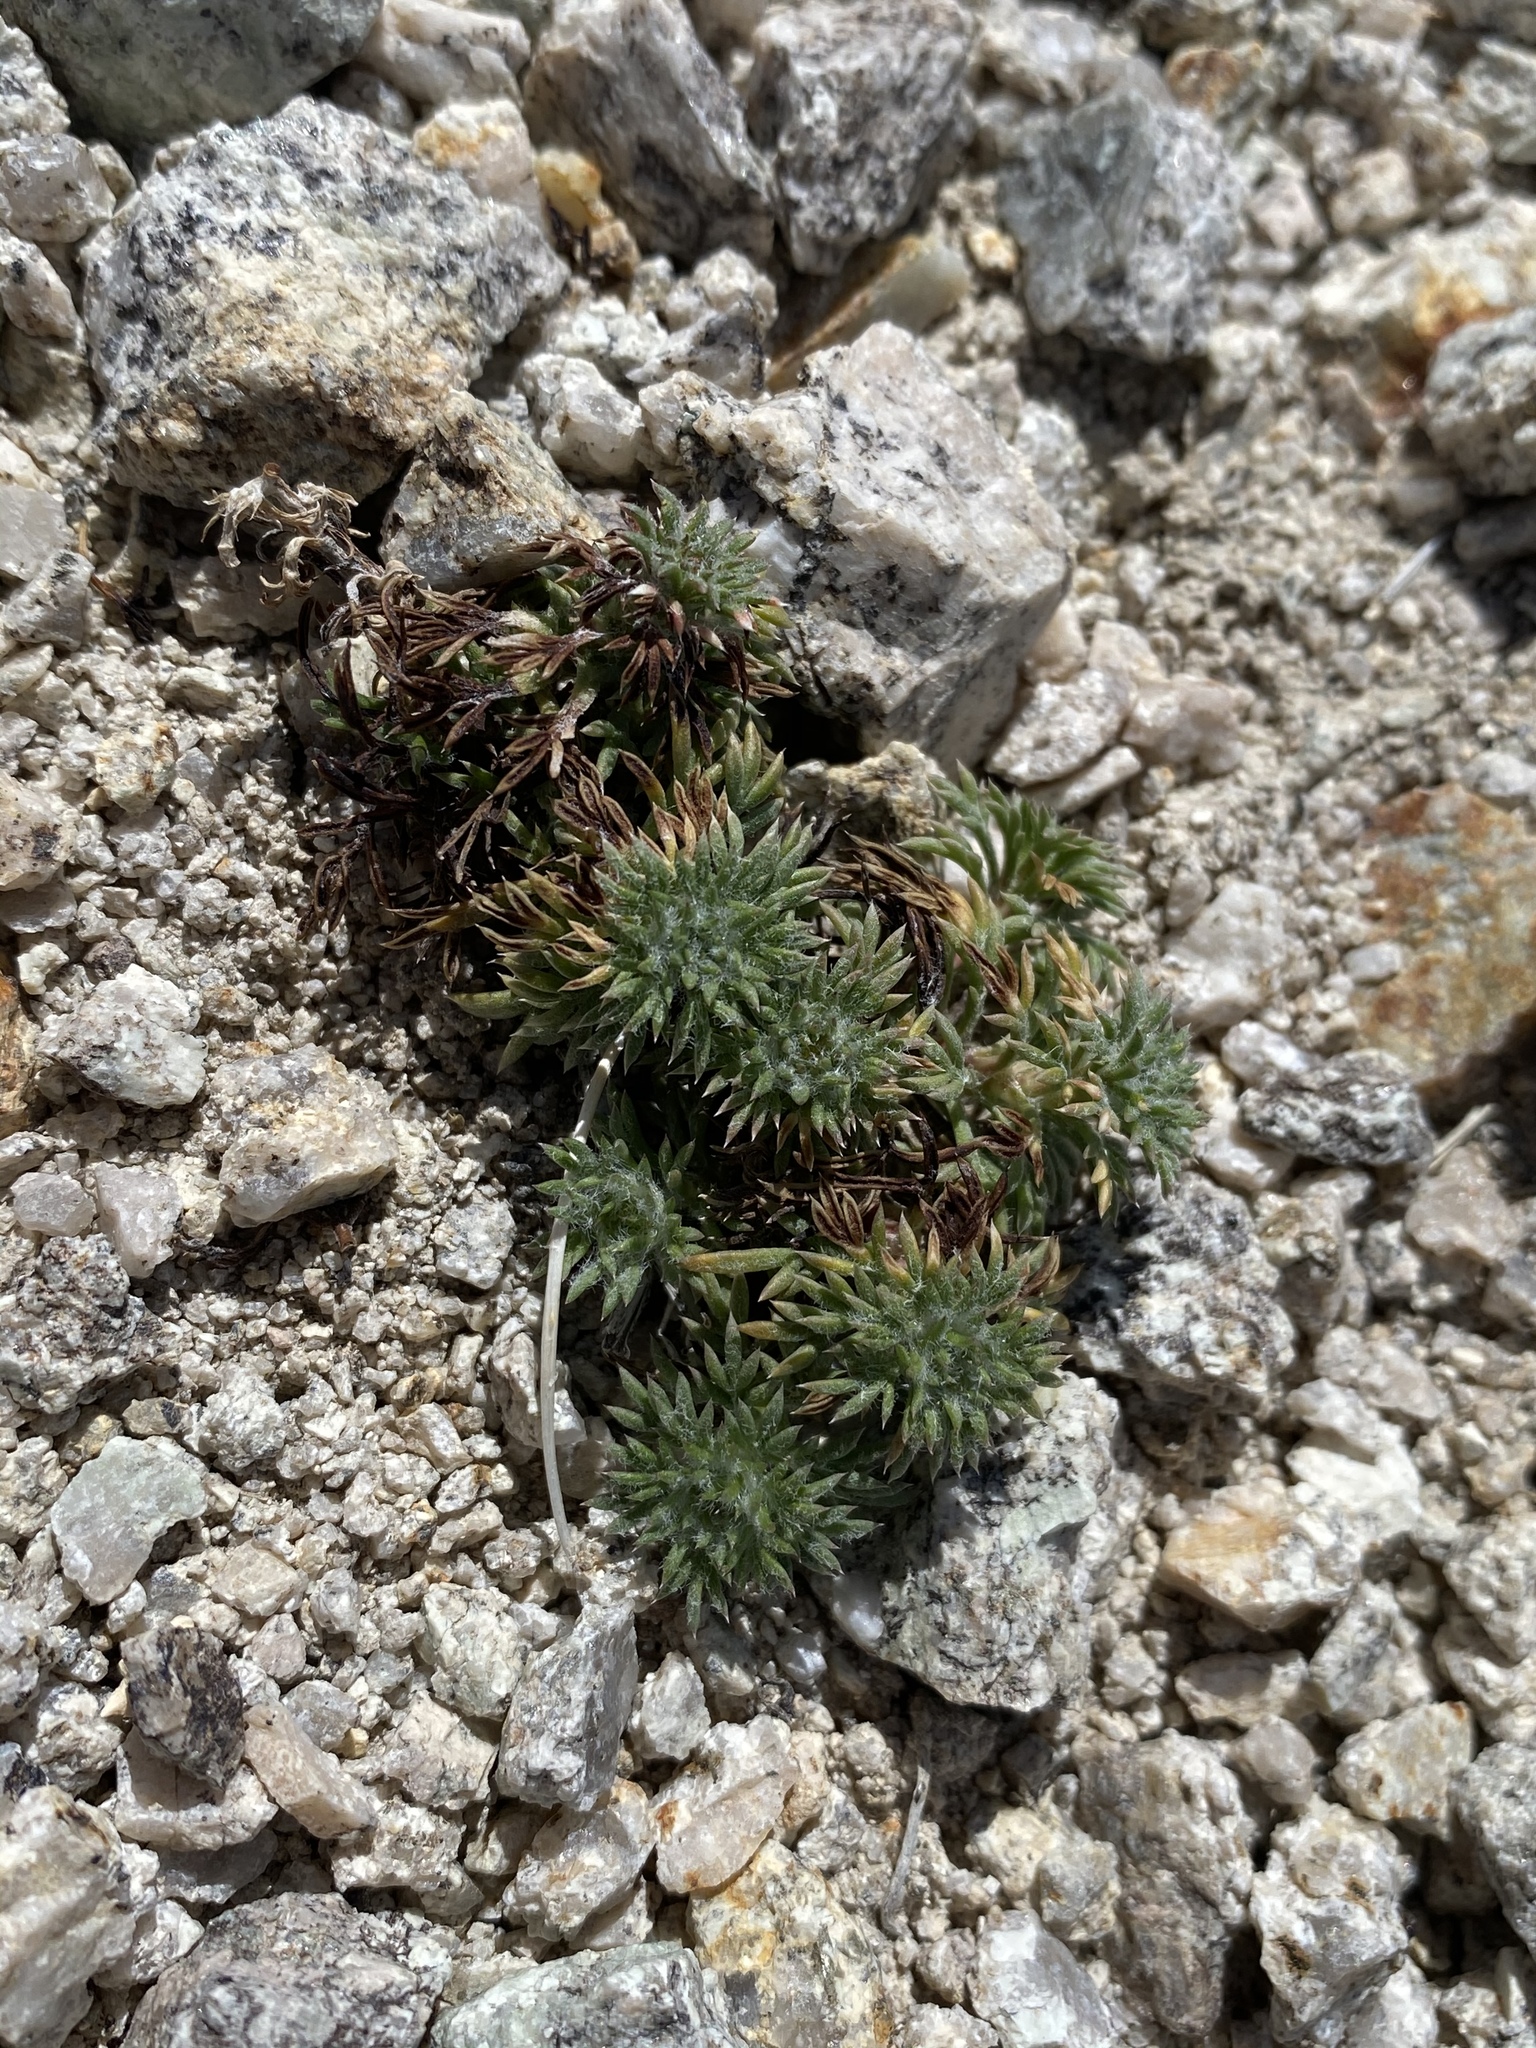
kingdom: Plantae
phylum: Tracheophyta
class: Magnoliopsida
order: Ericales
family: Polemoniaceae
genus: Ipomopsis
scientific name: Ipomopsis congesta
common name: Ball-head gilia
